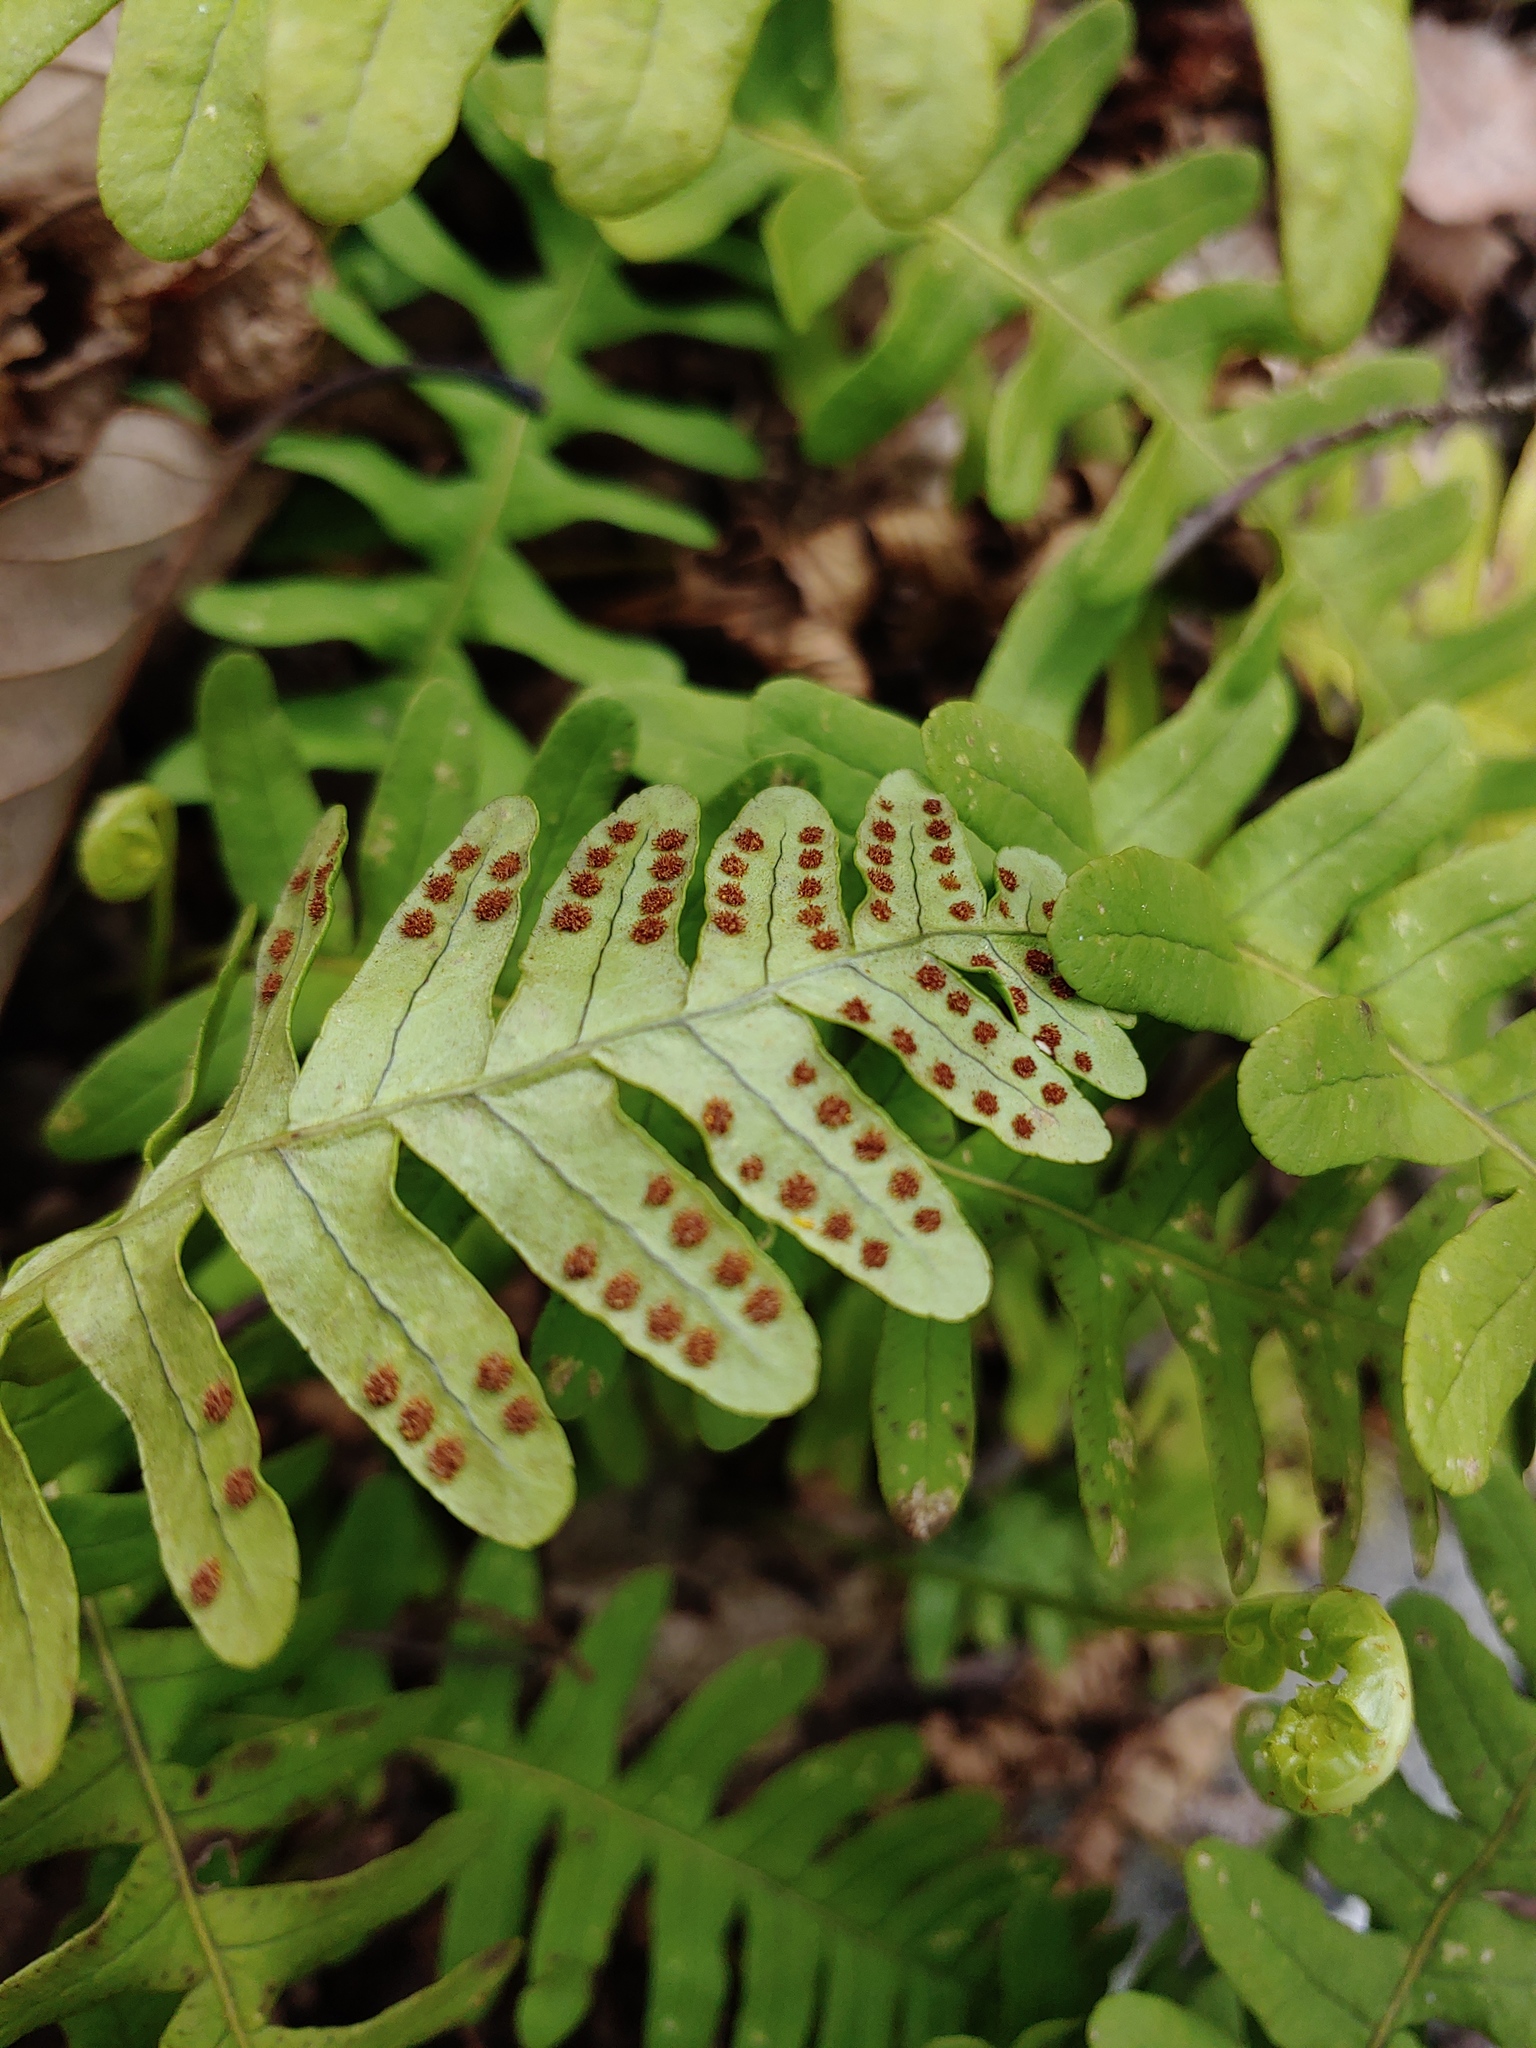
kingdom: Plantae
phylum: Tracheophyta
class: Polypodiopsida
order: Polypodiales
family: Polypodiaceae
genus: Polypodium
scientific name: Polypodium virginianum
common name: American wall fern
